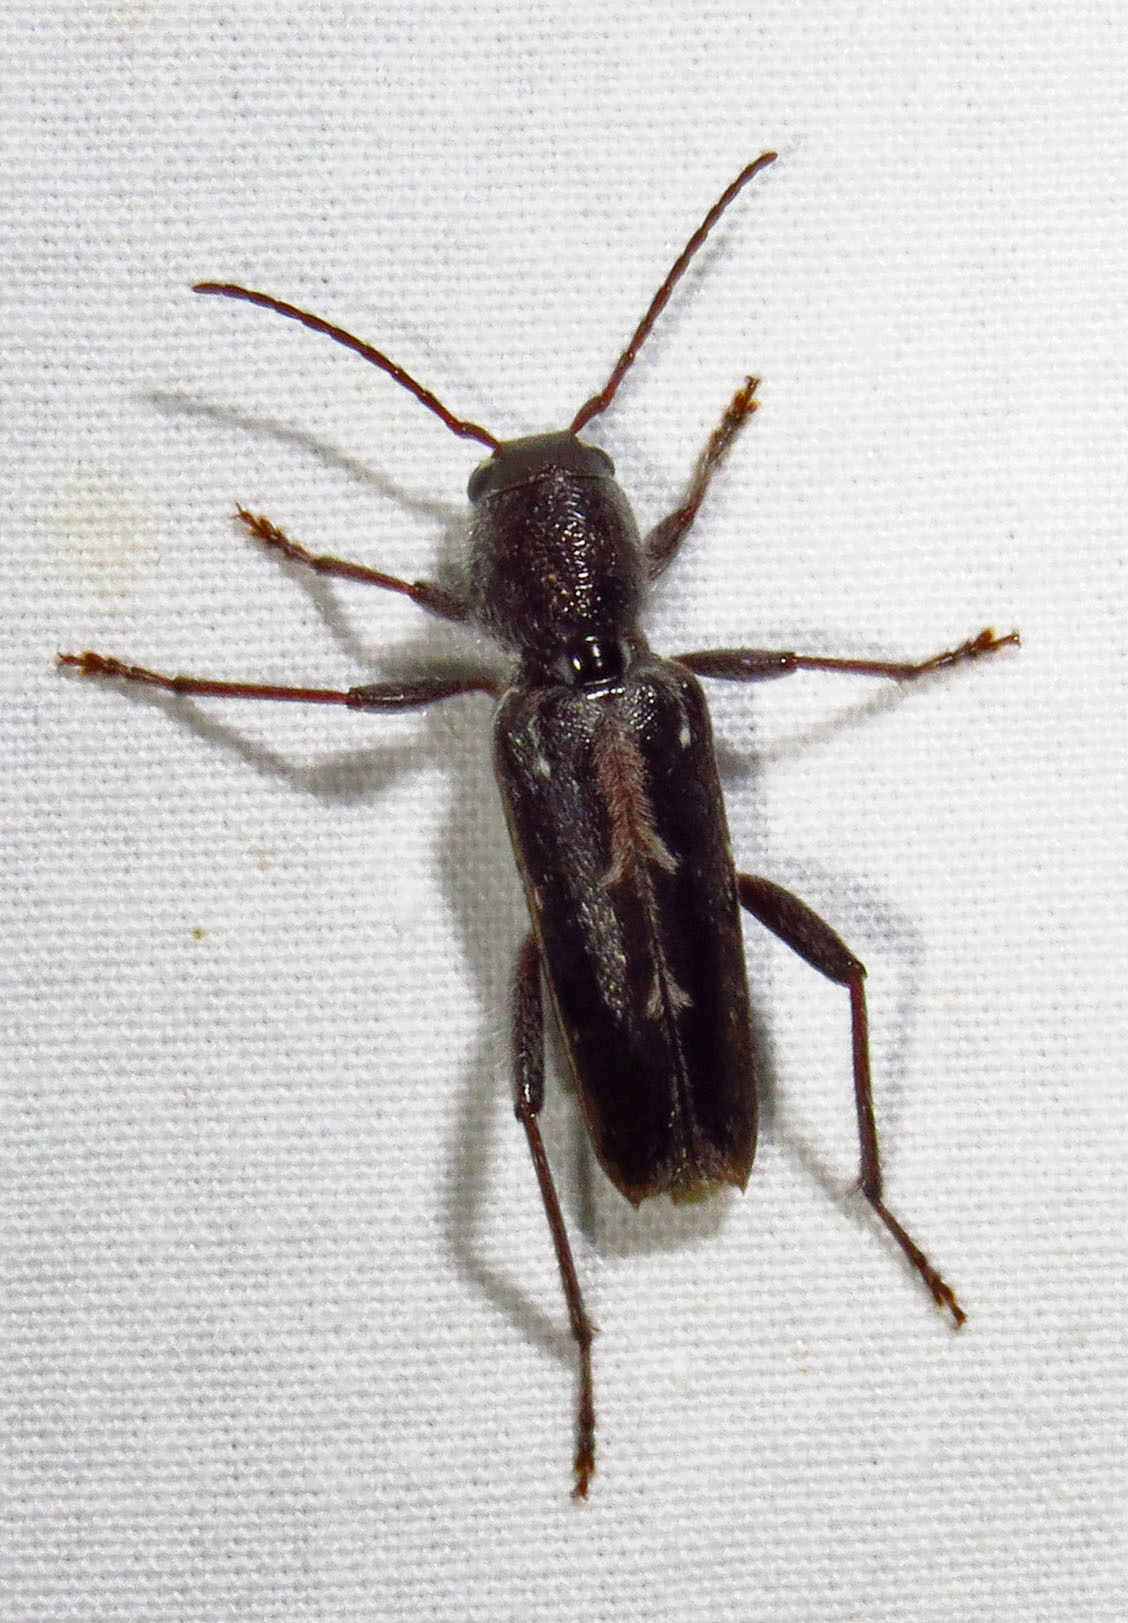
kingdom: Animalia
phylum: Arthropoda
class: Insecta
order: Coleoptera
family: Cerambycidae
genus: Xylotrechus
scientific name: Xylotrechus sagittatus
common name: Arrowhead borer
